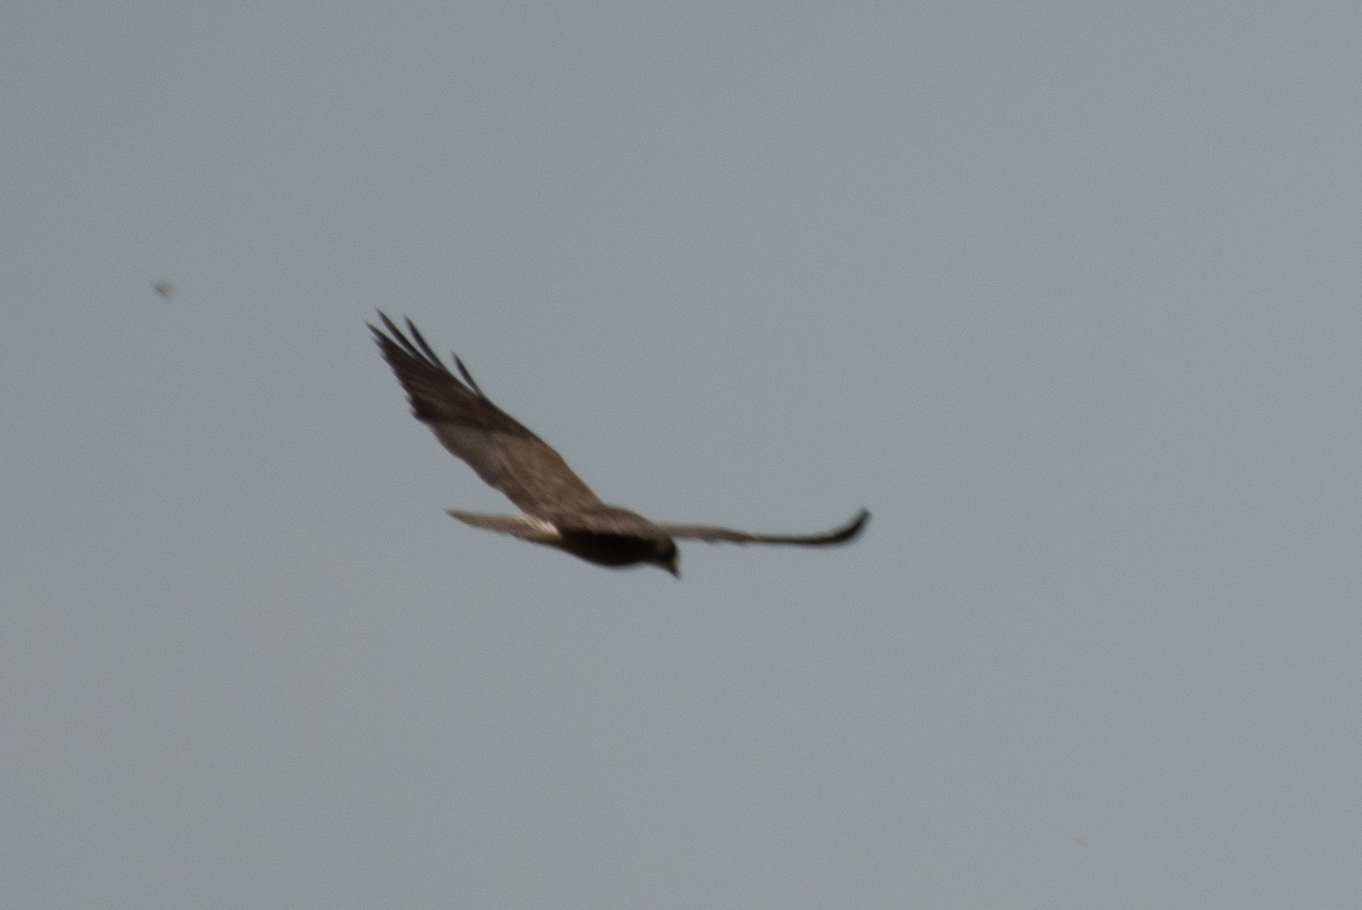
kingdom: Animalia
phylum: Chordata
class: Aves
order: Accipitriformes
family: Accipitridae
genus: Buteo
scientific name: Buteo swainsoni
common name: Swainson's hawk
